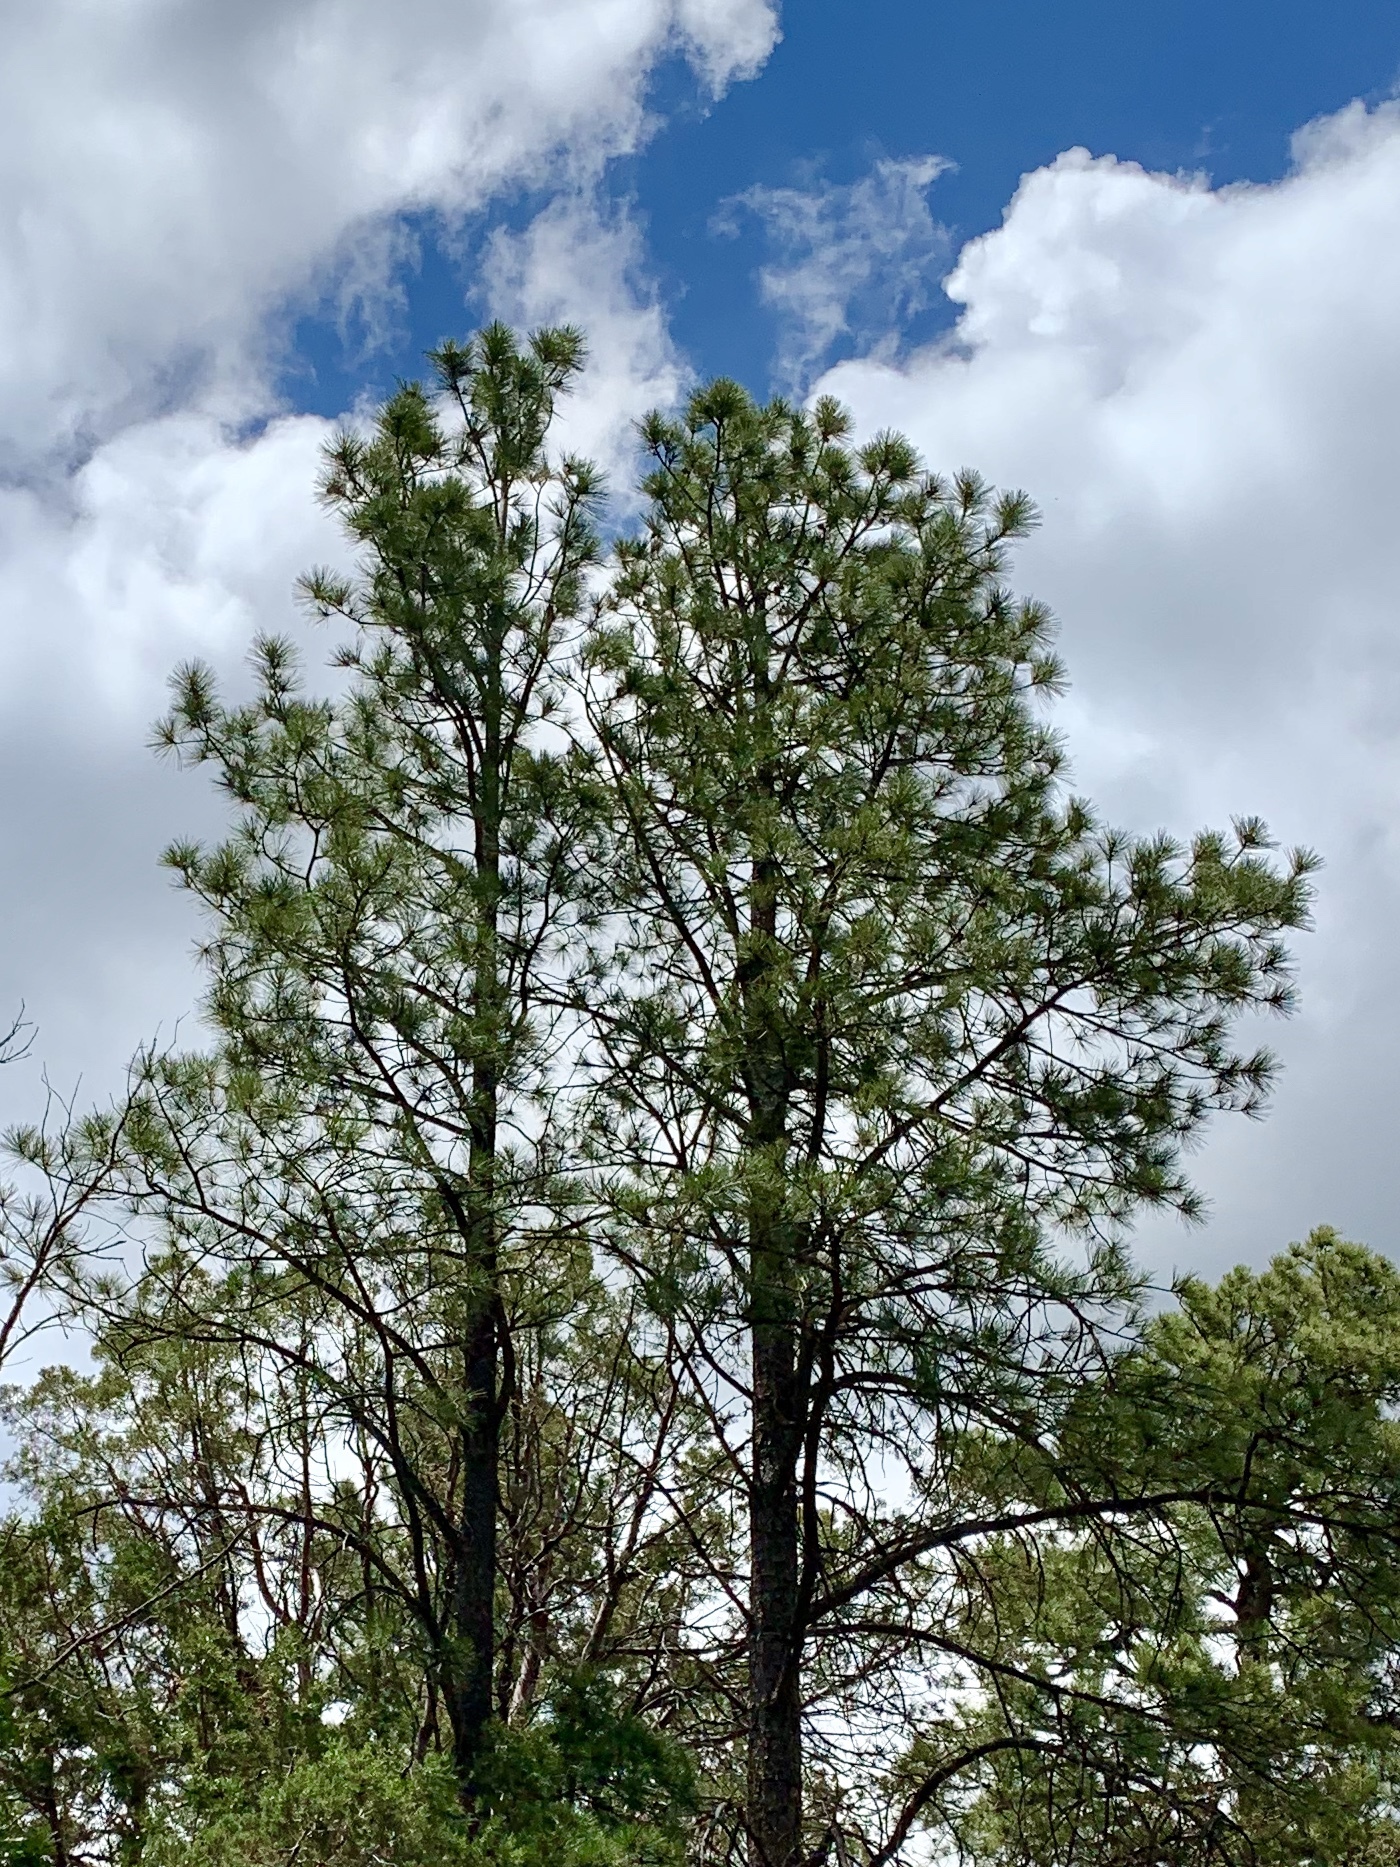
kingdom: Plantae
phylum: Tracheophyta
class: Pinopsida
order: Pinales
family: Pinaceae
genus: Pinus
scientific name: Pinus ponderosa
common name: Western yellow-pine
